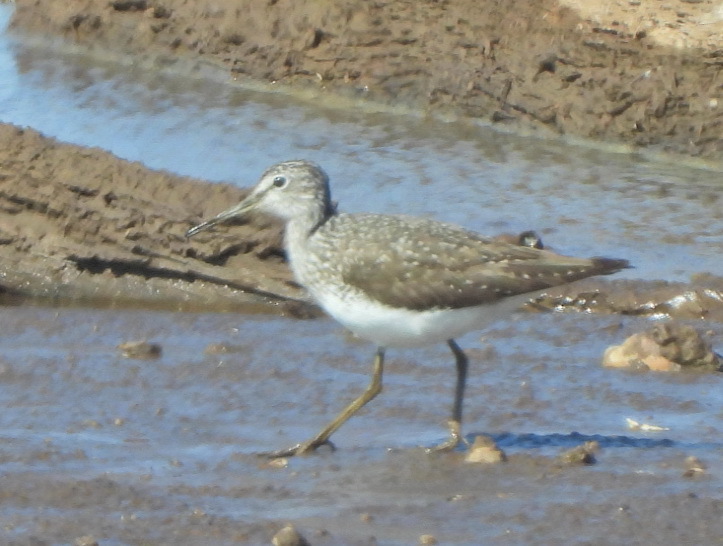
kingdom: Animalia
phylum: Chordata
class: Aves
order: Charadriiformes
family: Scolopacidae
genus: Tringa
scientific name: Tringa ochropus
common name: Green sandpiper
